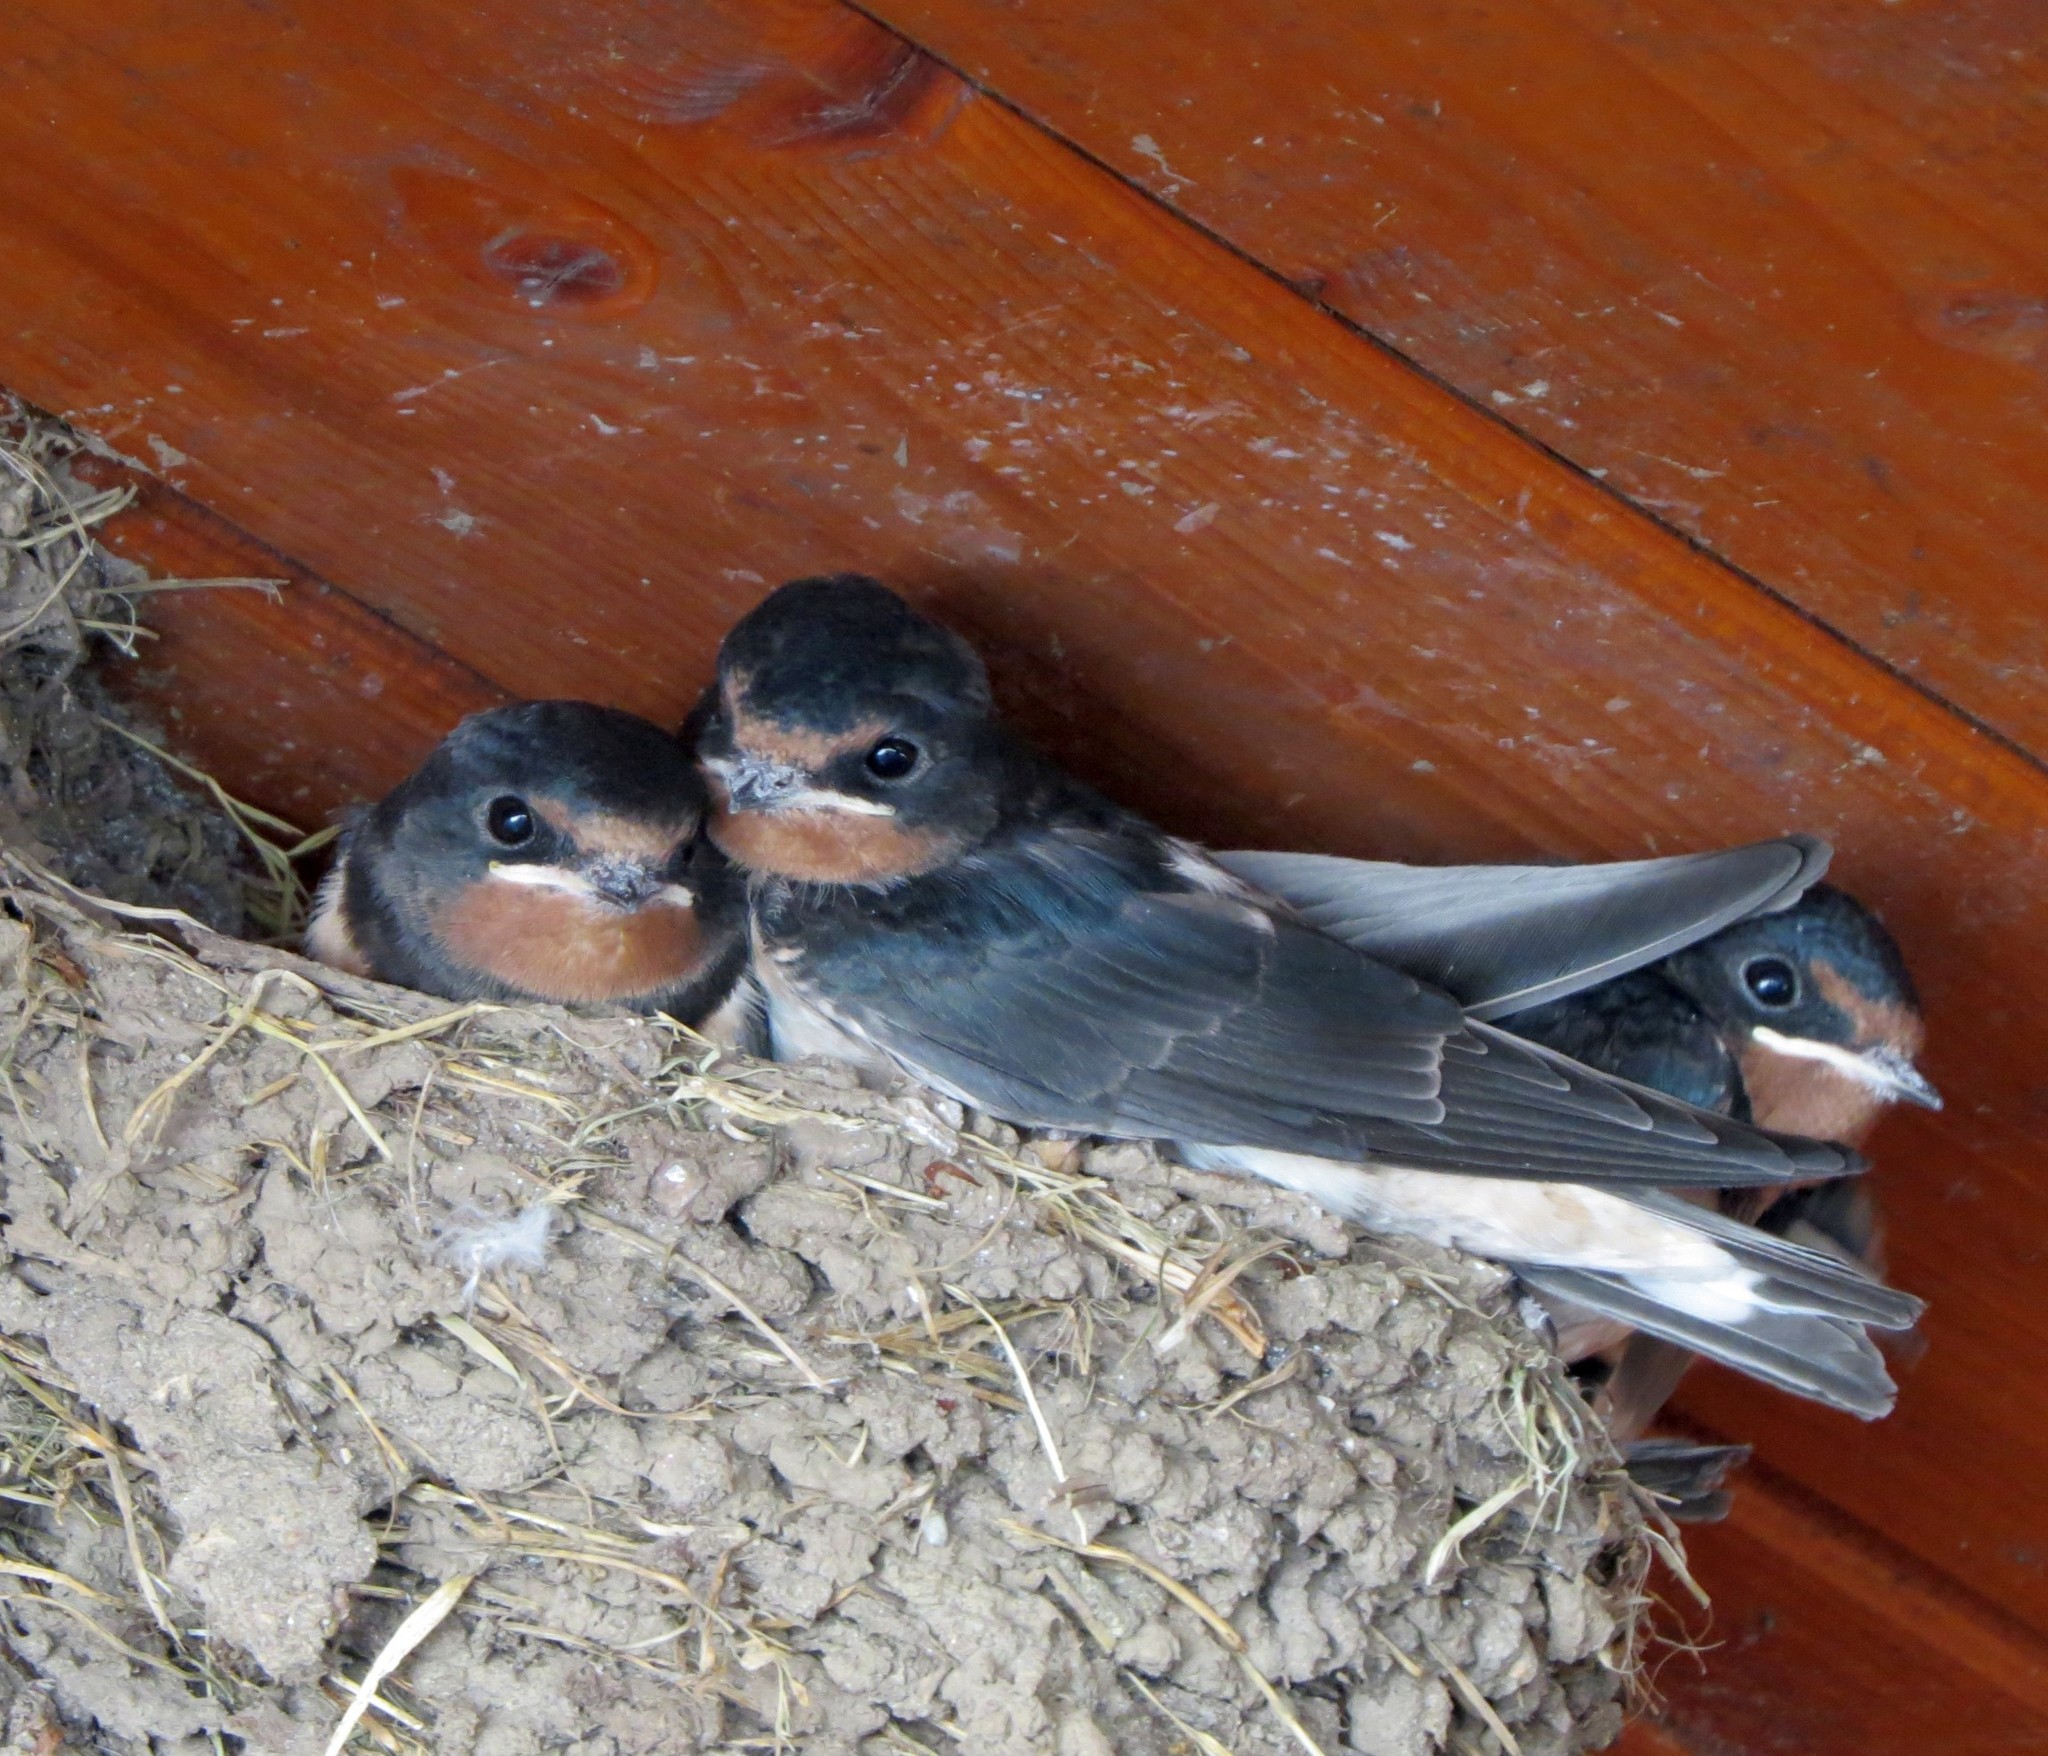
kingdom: Animalia
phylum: Chordata
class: Aves
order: Passeriformes
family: Hirundinidae
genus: Hirundo
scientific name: Hirundo rustica
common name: Barn swallow
